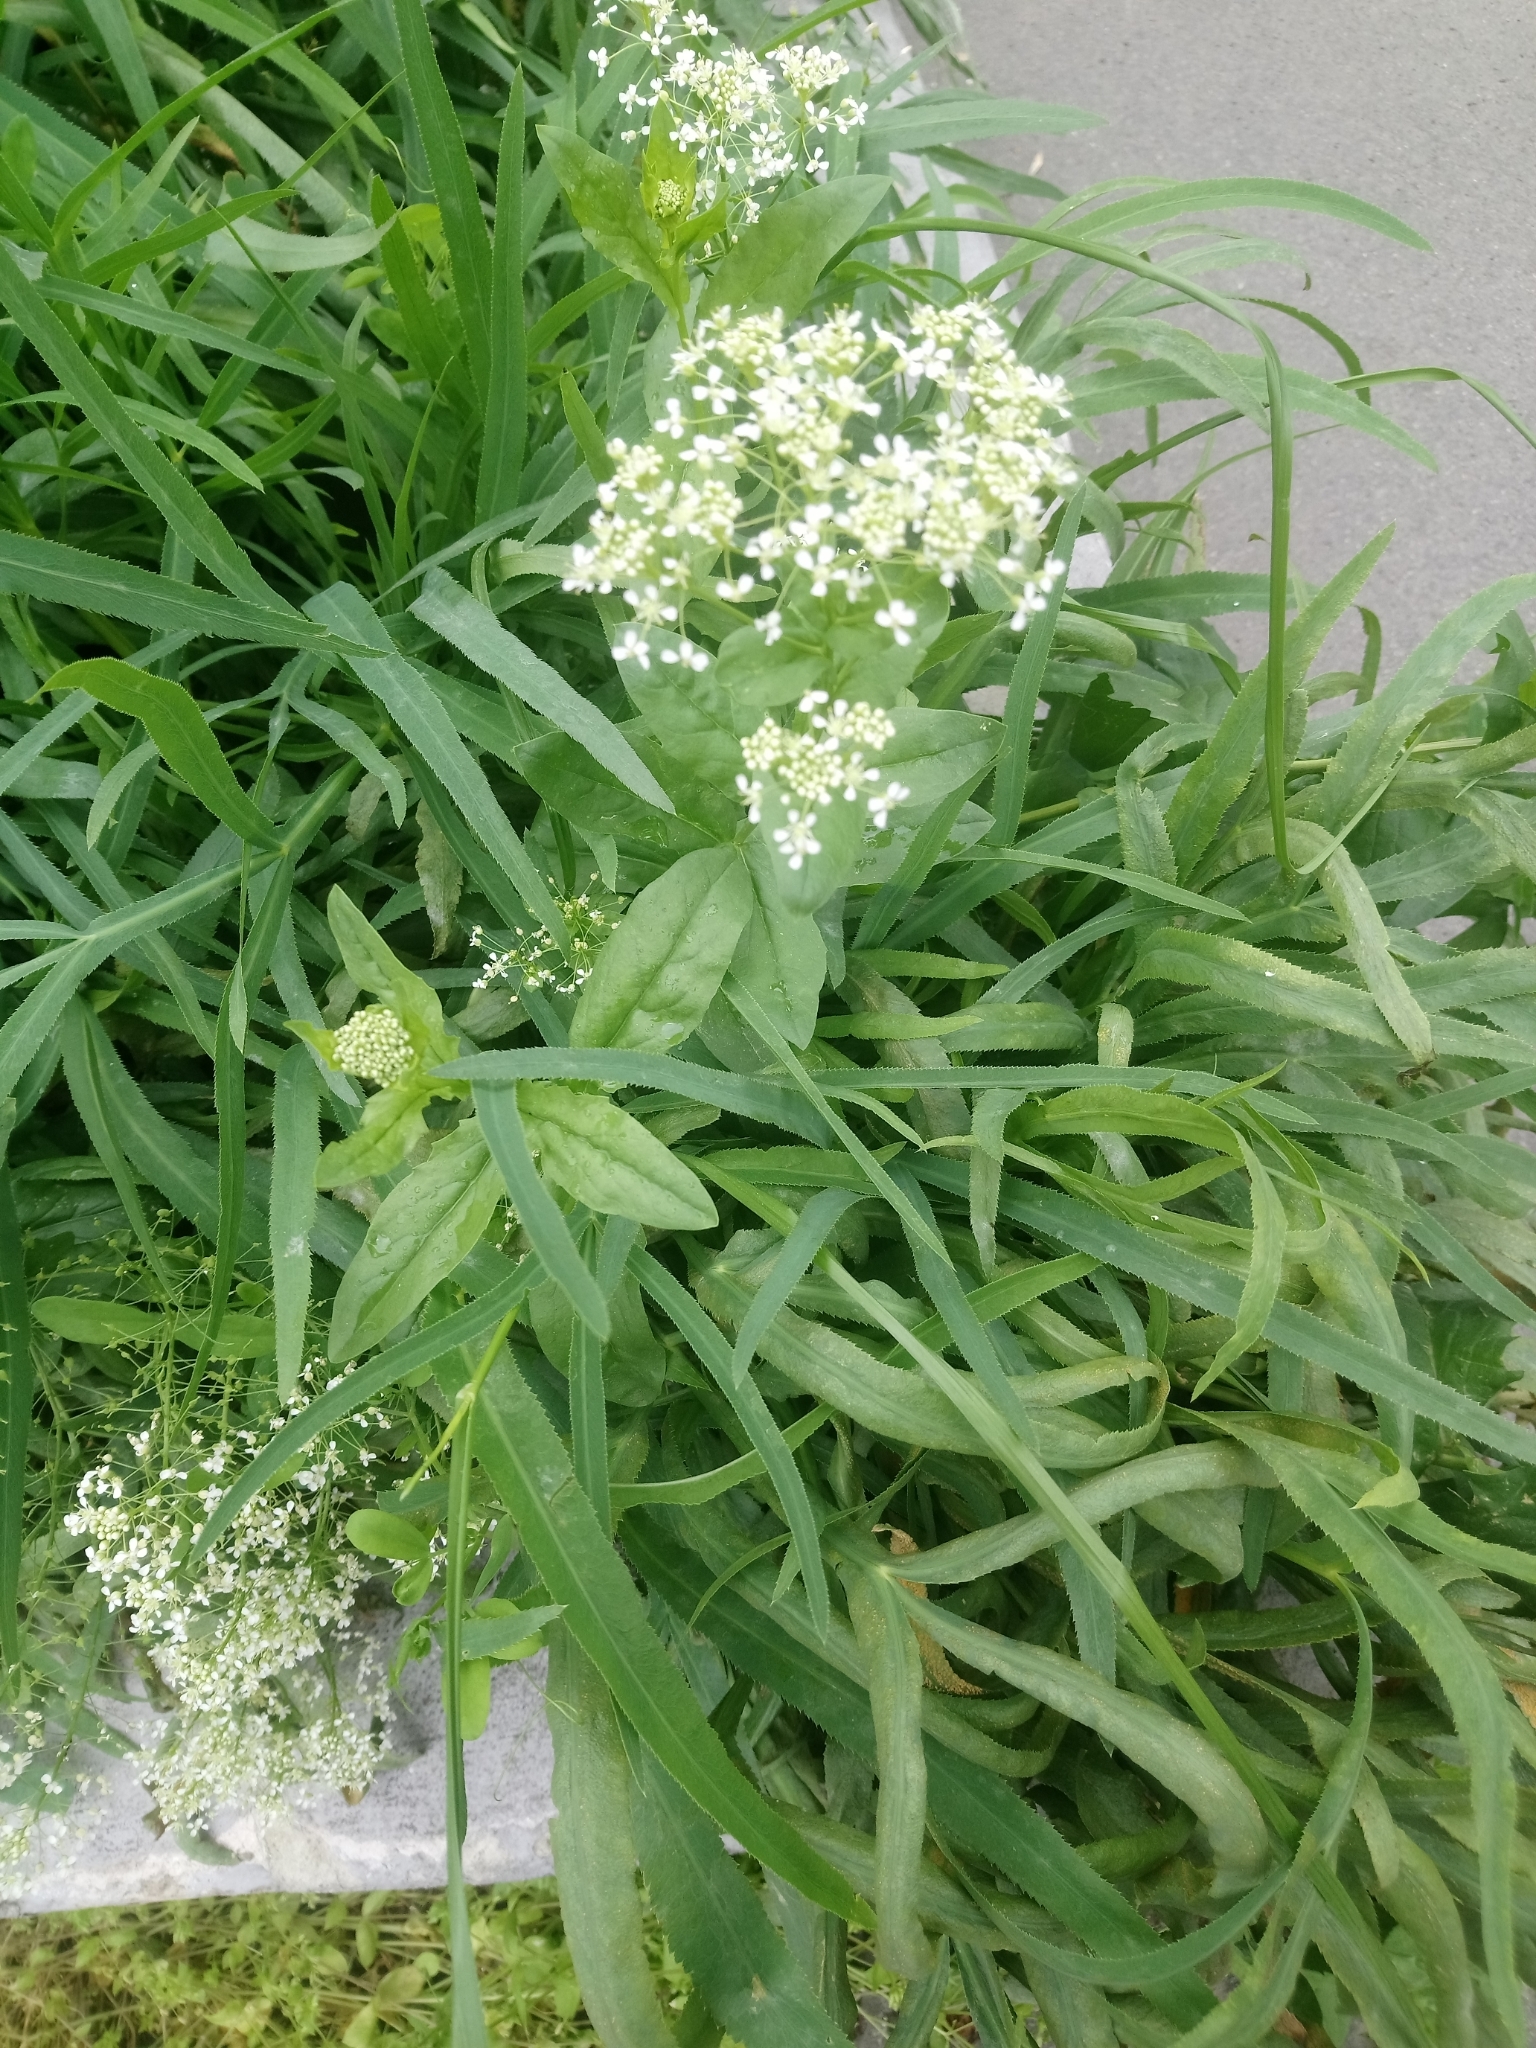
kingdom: Plantae
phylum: Tracheophyta
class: Magnoliopsida
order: Brassicales
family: Brassicaceae
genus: Lepidium
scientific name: Lepidium draba
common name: Hoary cress
